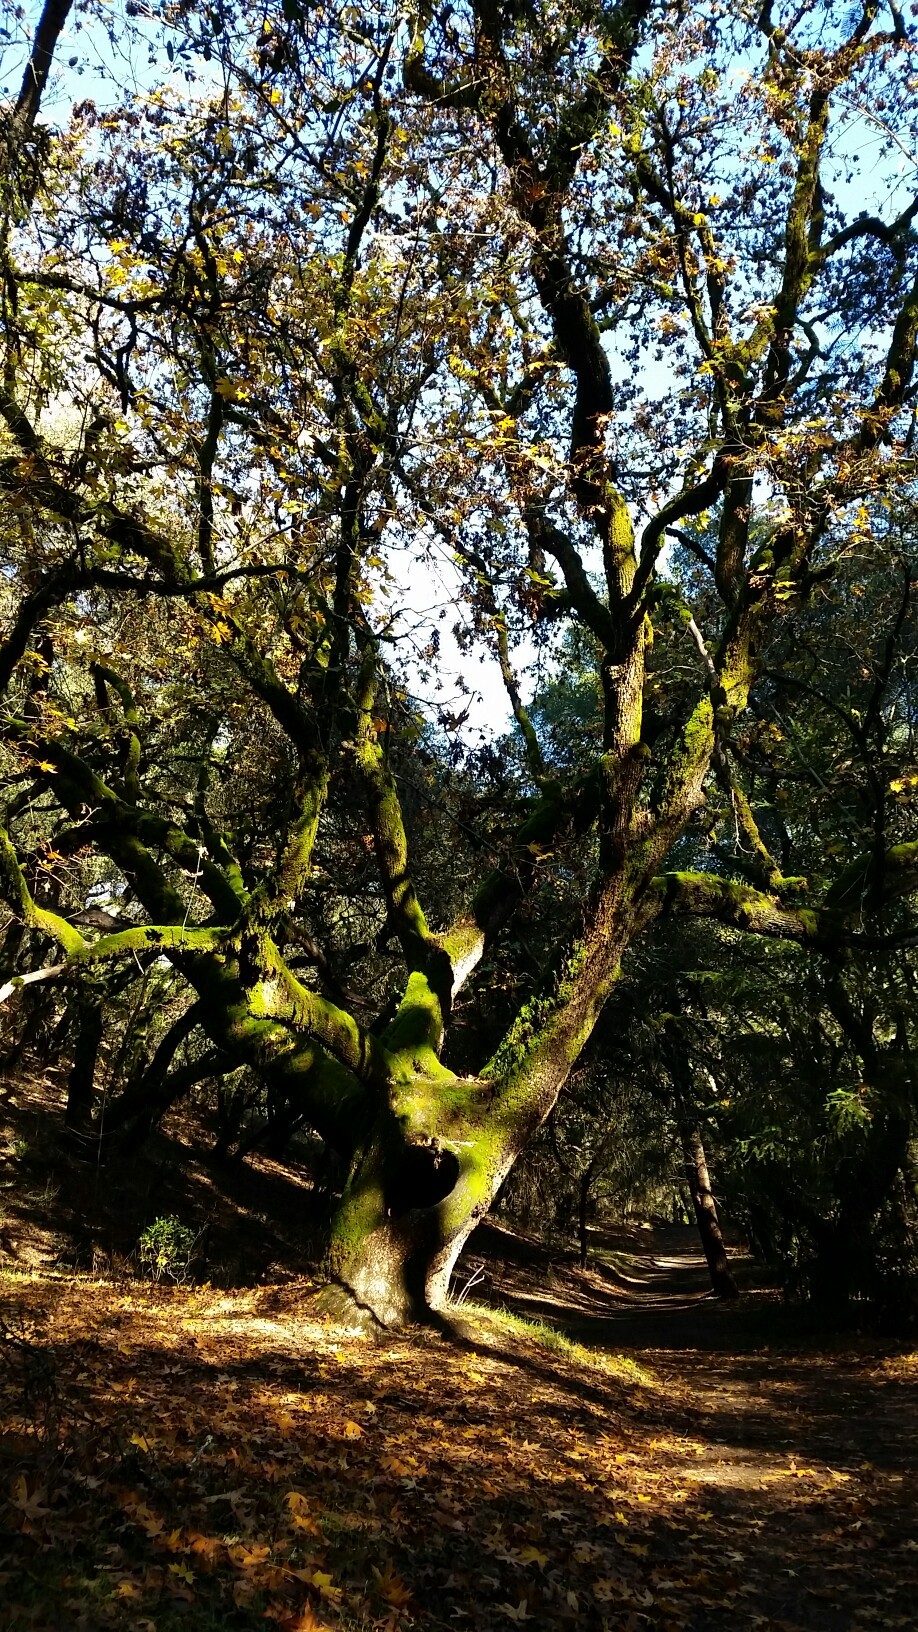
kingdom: Plantae
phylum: Tracheophyta
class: Magnoliopsida
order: Sapindales
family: Sapindaceae
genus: Acer
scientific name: Acer macrophyllum
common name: Oregon maple
